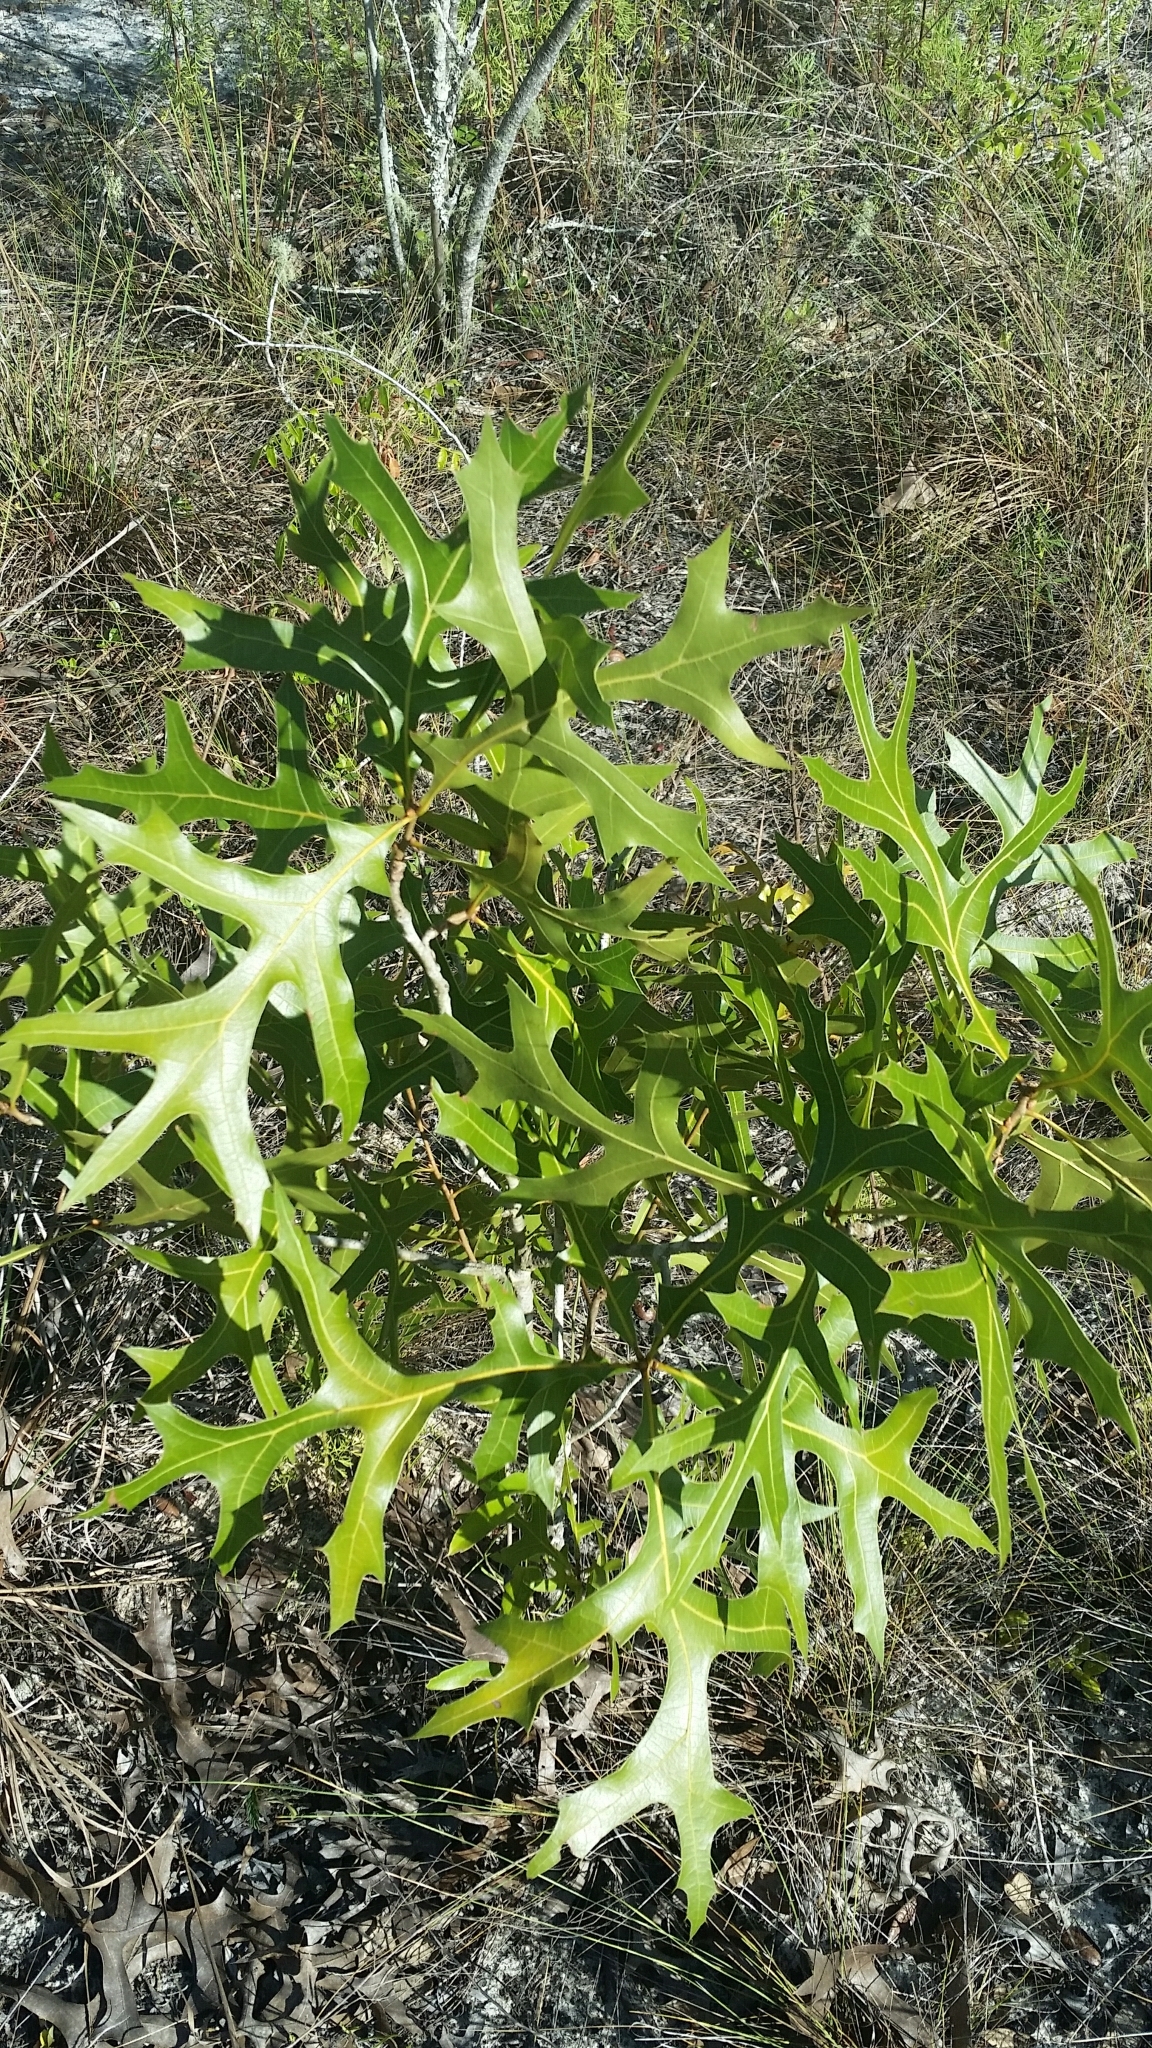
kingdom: Plantae
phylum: Tracheophyta
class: Magnoliopsida
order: Fagales
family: Fagaceae
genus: Quercus
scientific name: Quercus laevis
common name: Turkey oak
